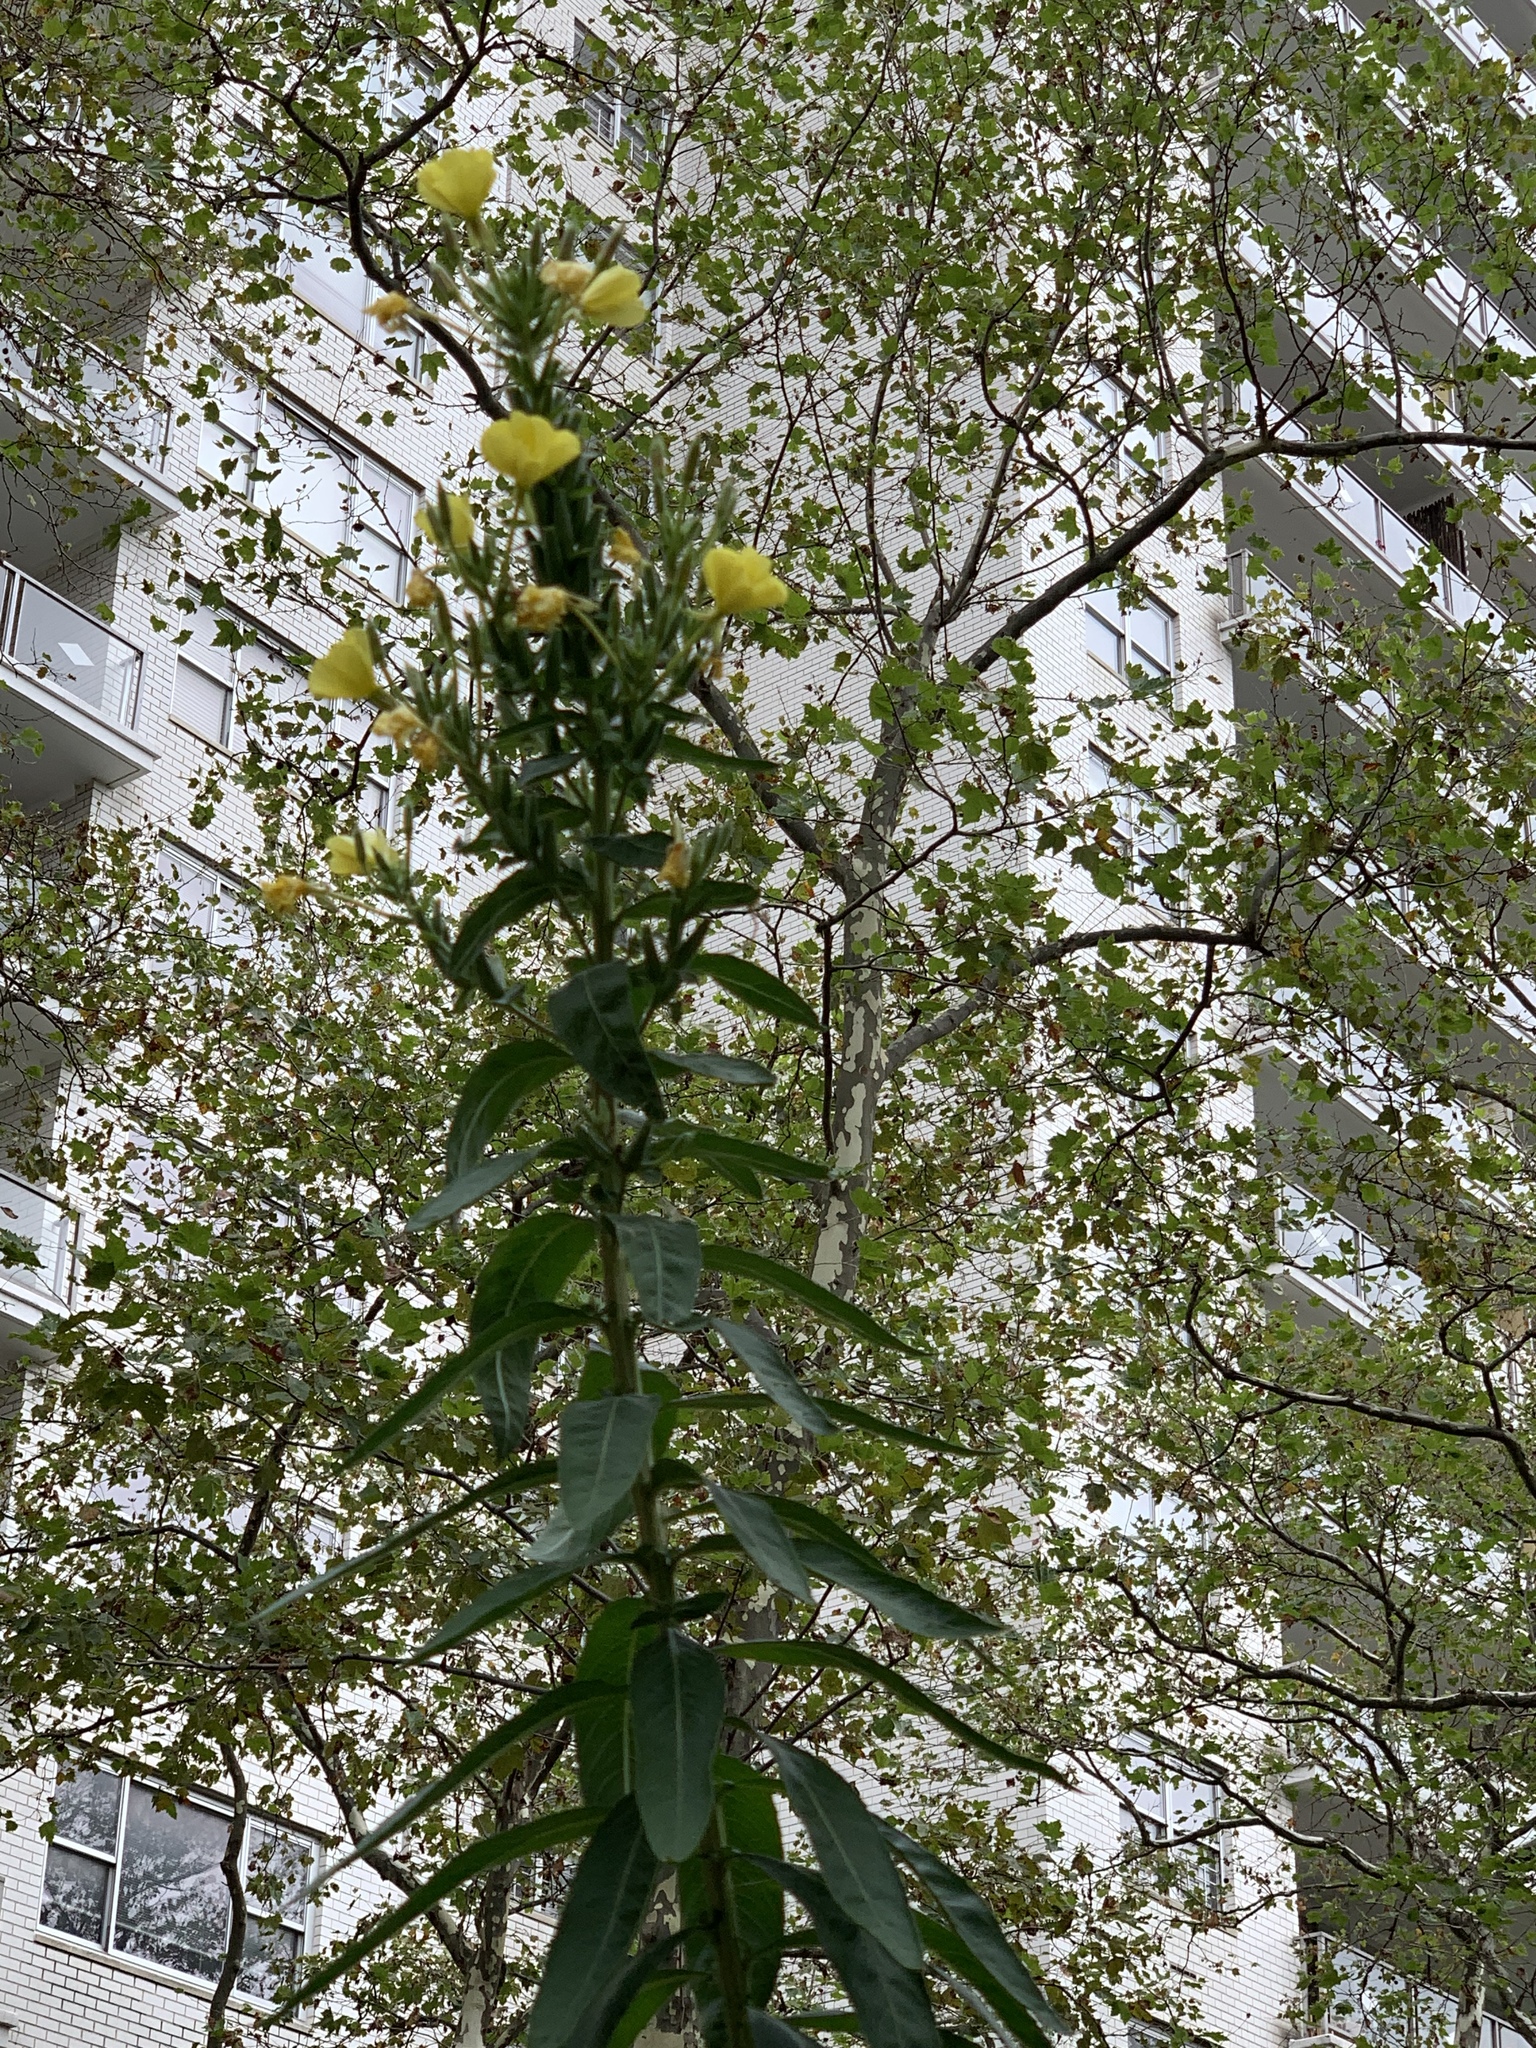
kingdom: Plantae
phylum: Tracheophyta
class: Magnoliopsida
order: Myrtales
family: Onagraceae
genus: Oenothera
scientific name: Oenothera biennis
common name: Common evening-primrose
